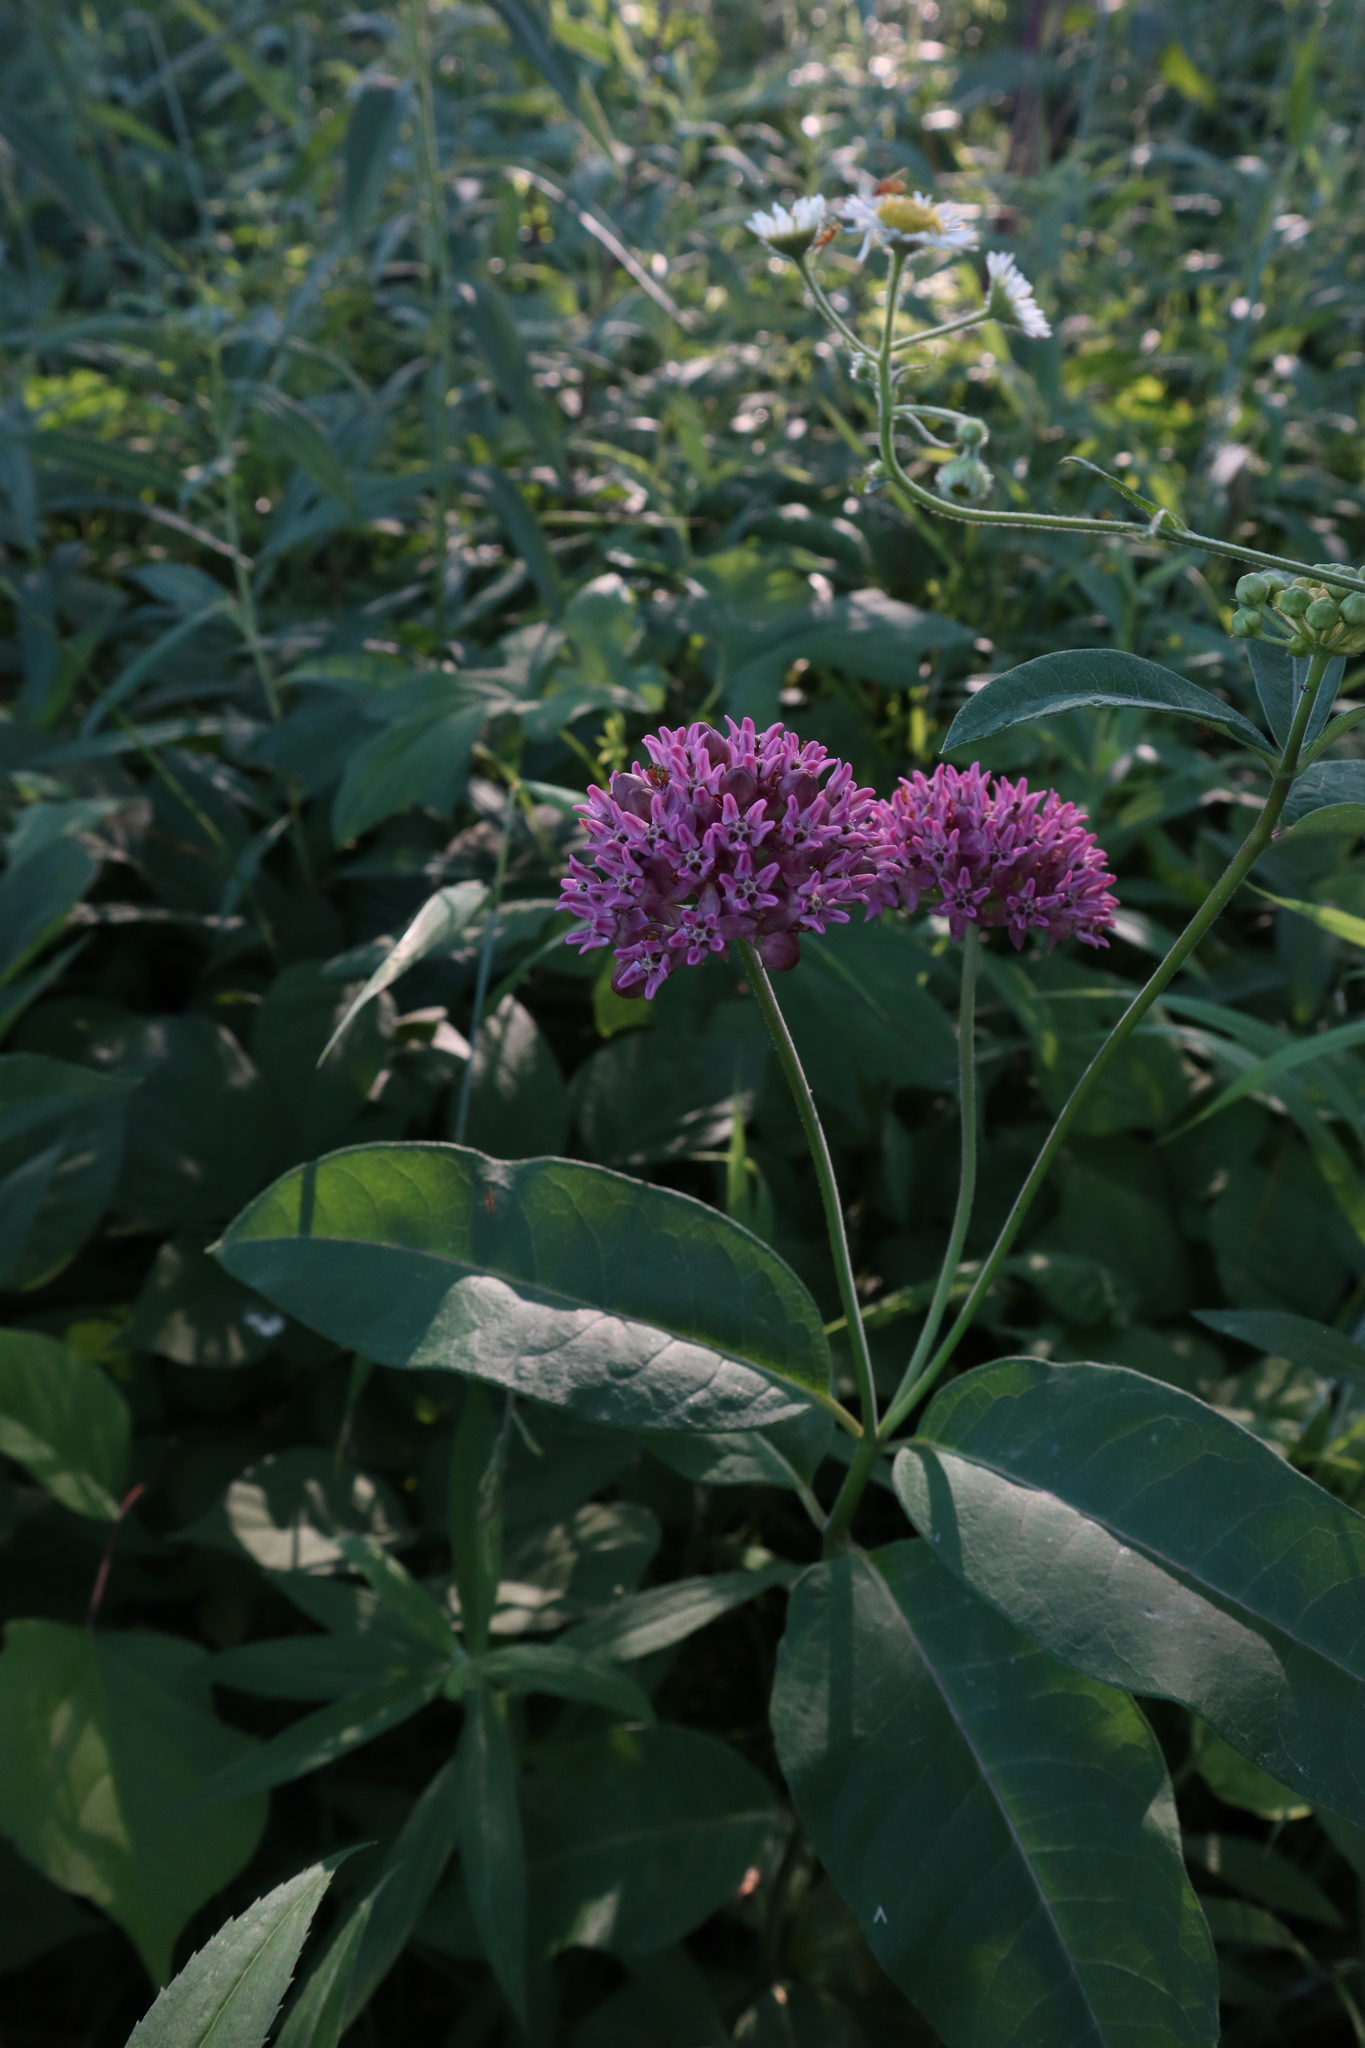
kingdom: Plantae
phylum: Tracheophyta
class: Magnoliopsida
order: Gentianales
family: Apocynaceae
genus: Asclepias
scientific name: Asclepias purpurascens
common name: Purple milkweed
